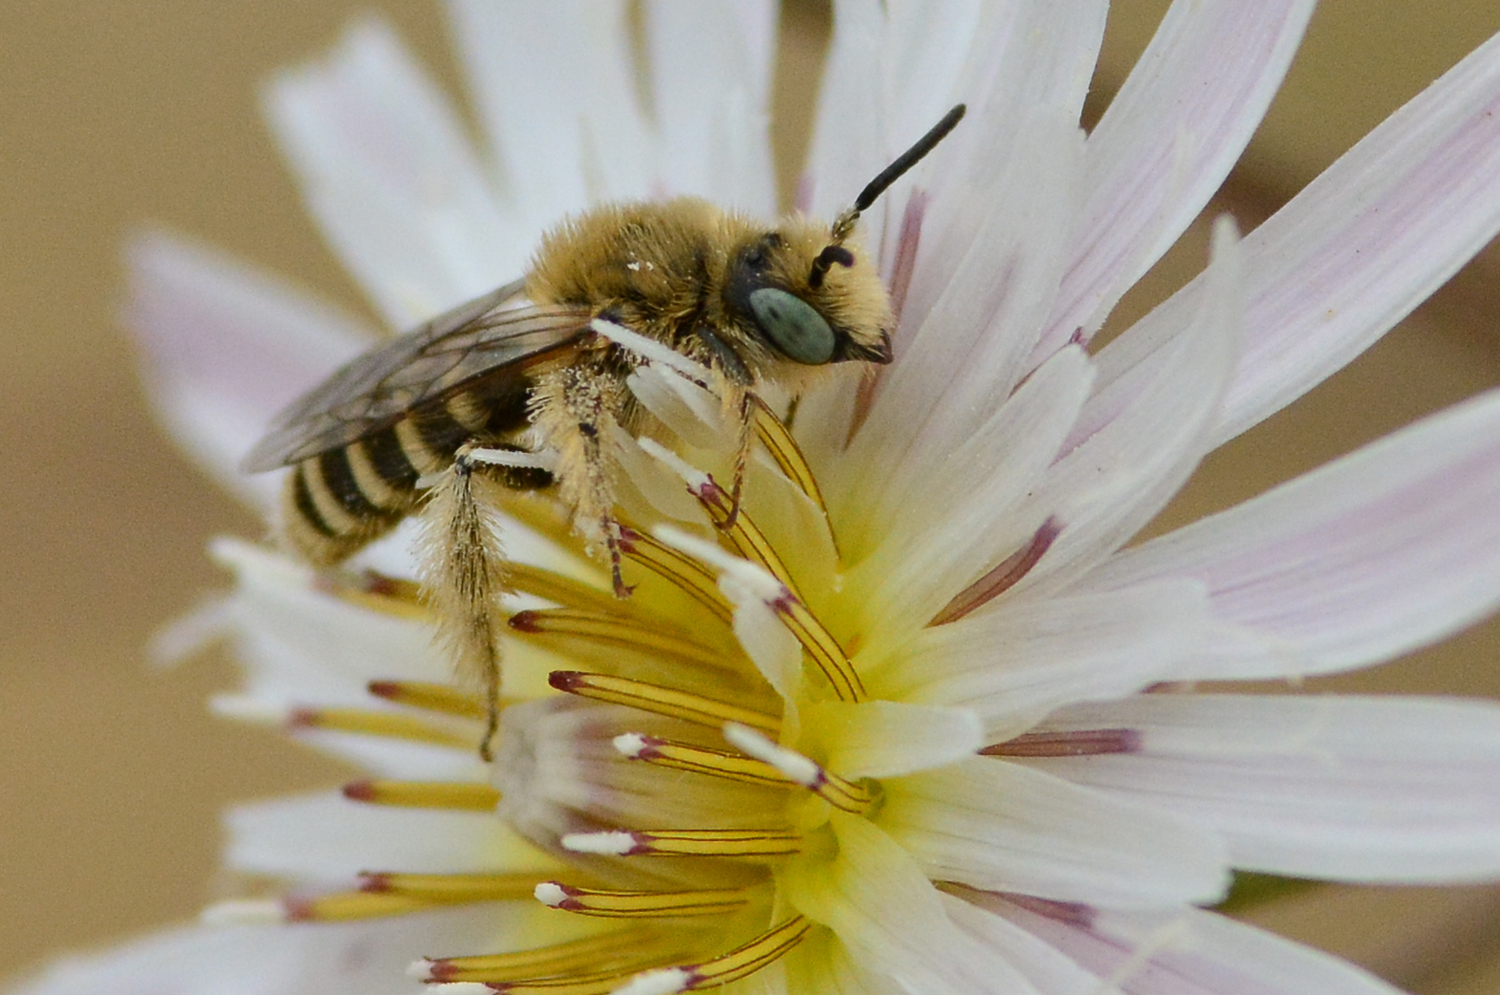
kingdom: Animalia
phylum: Arthropoda
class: Insecta
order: Hymenoptera
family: Melittidae
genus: Hesperapis
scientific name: Hesperapis
